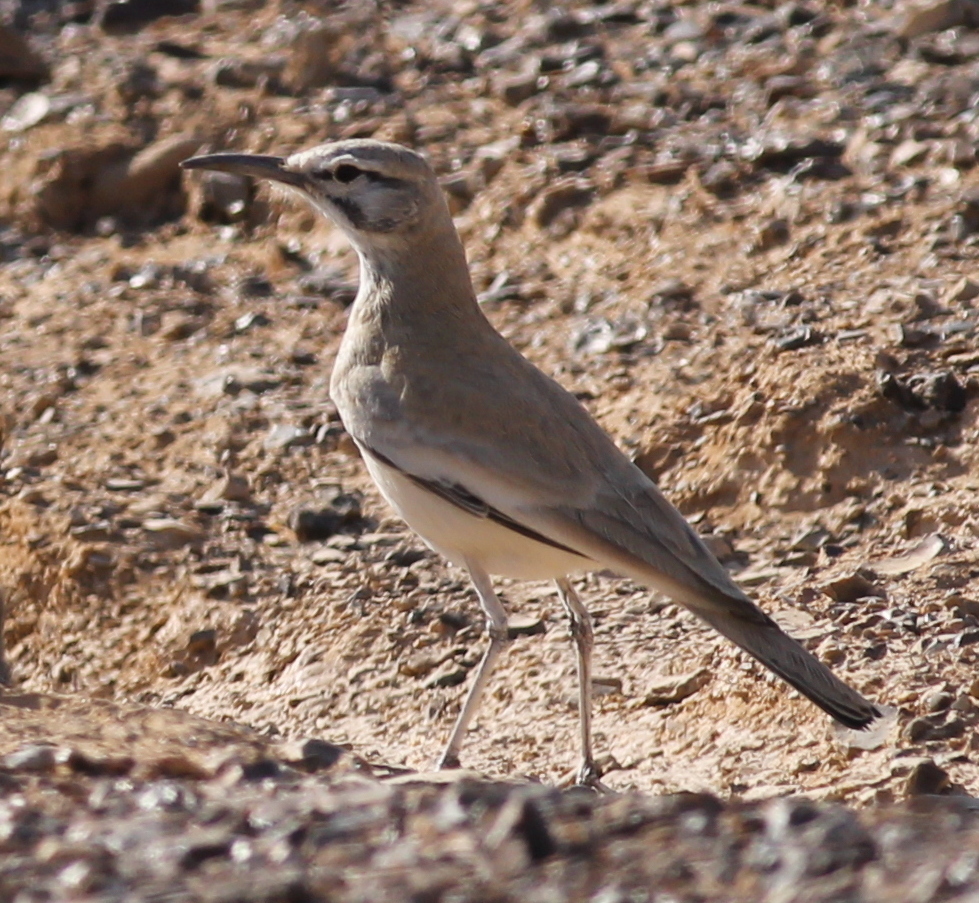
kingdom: Animalia
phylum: Chordata
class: Aves
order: Passeriformes
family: Alaudidae
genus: Alaemon
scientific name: Alaemon alaudipes
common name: Greater hoopoe-lark
